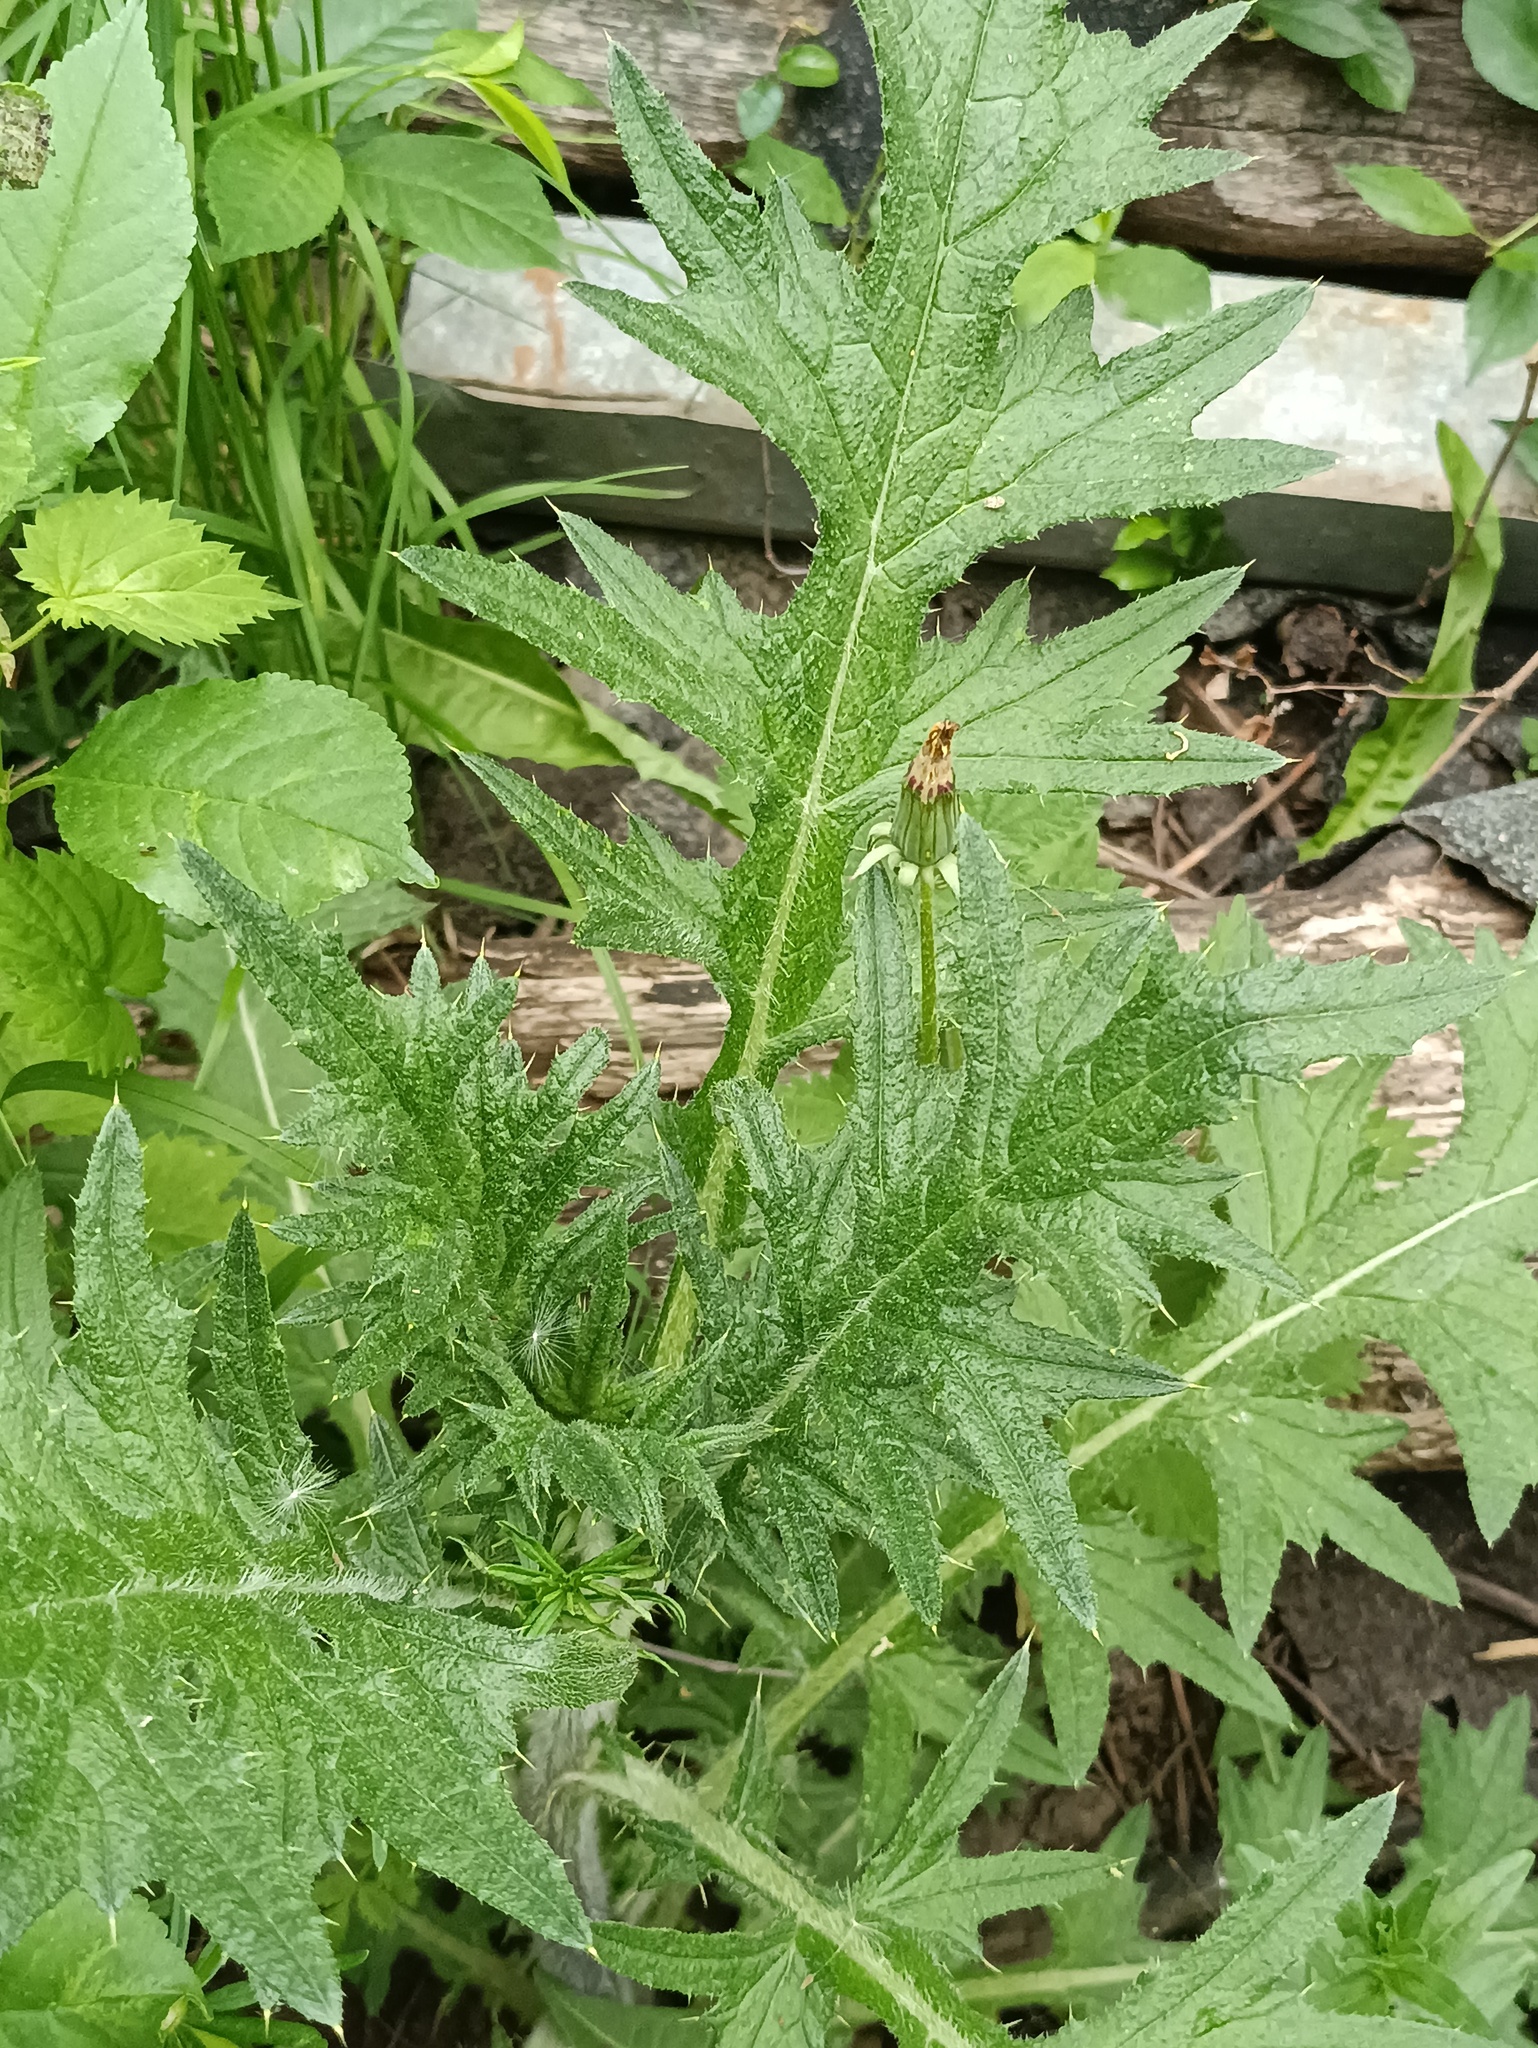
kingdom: Plantae
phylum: Tracheophyta
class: Magnoliopsida
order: Asterales
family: Asteraceae
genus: Cirsium
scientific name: Cirsium vulgare
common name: Bull thistle
